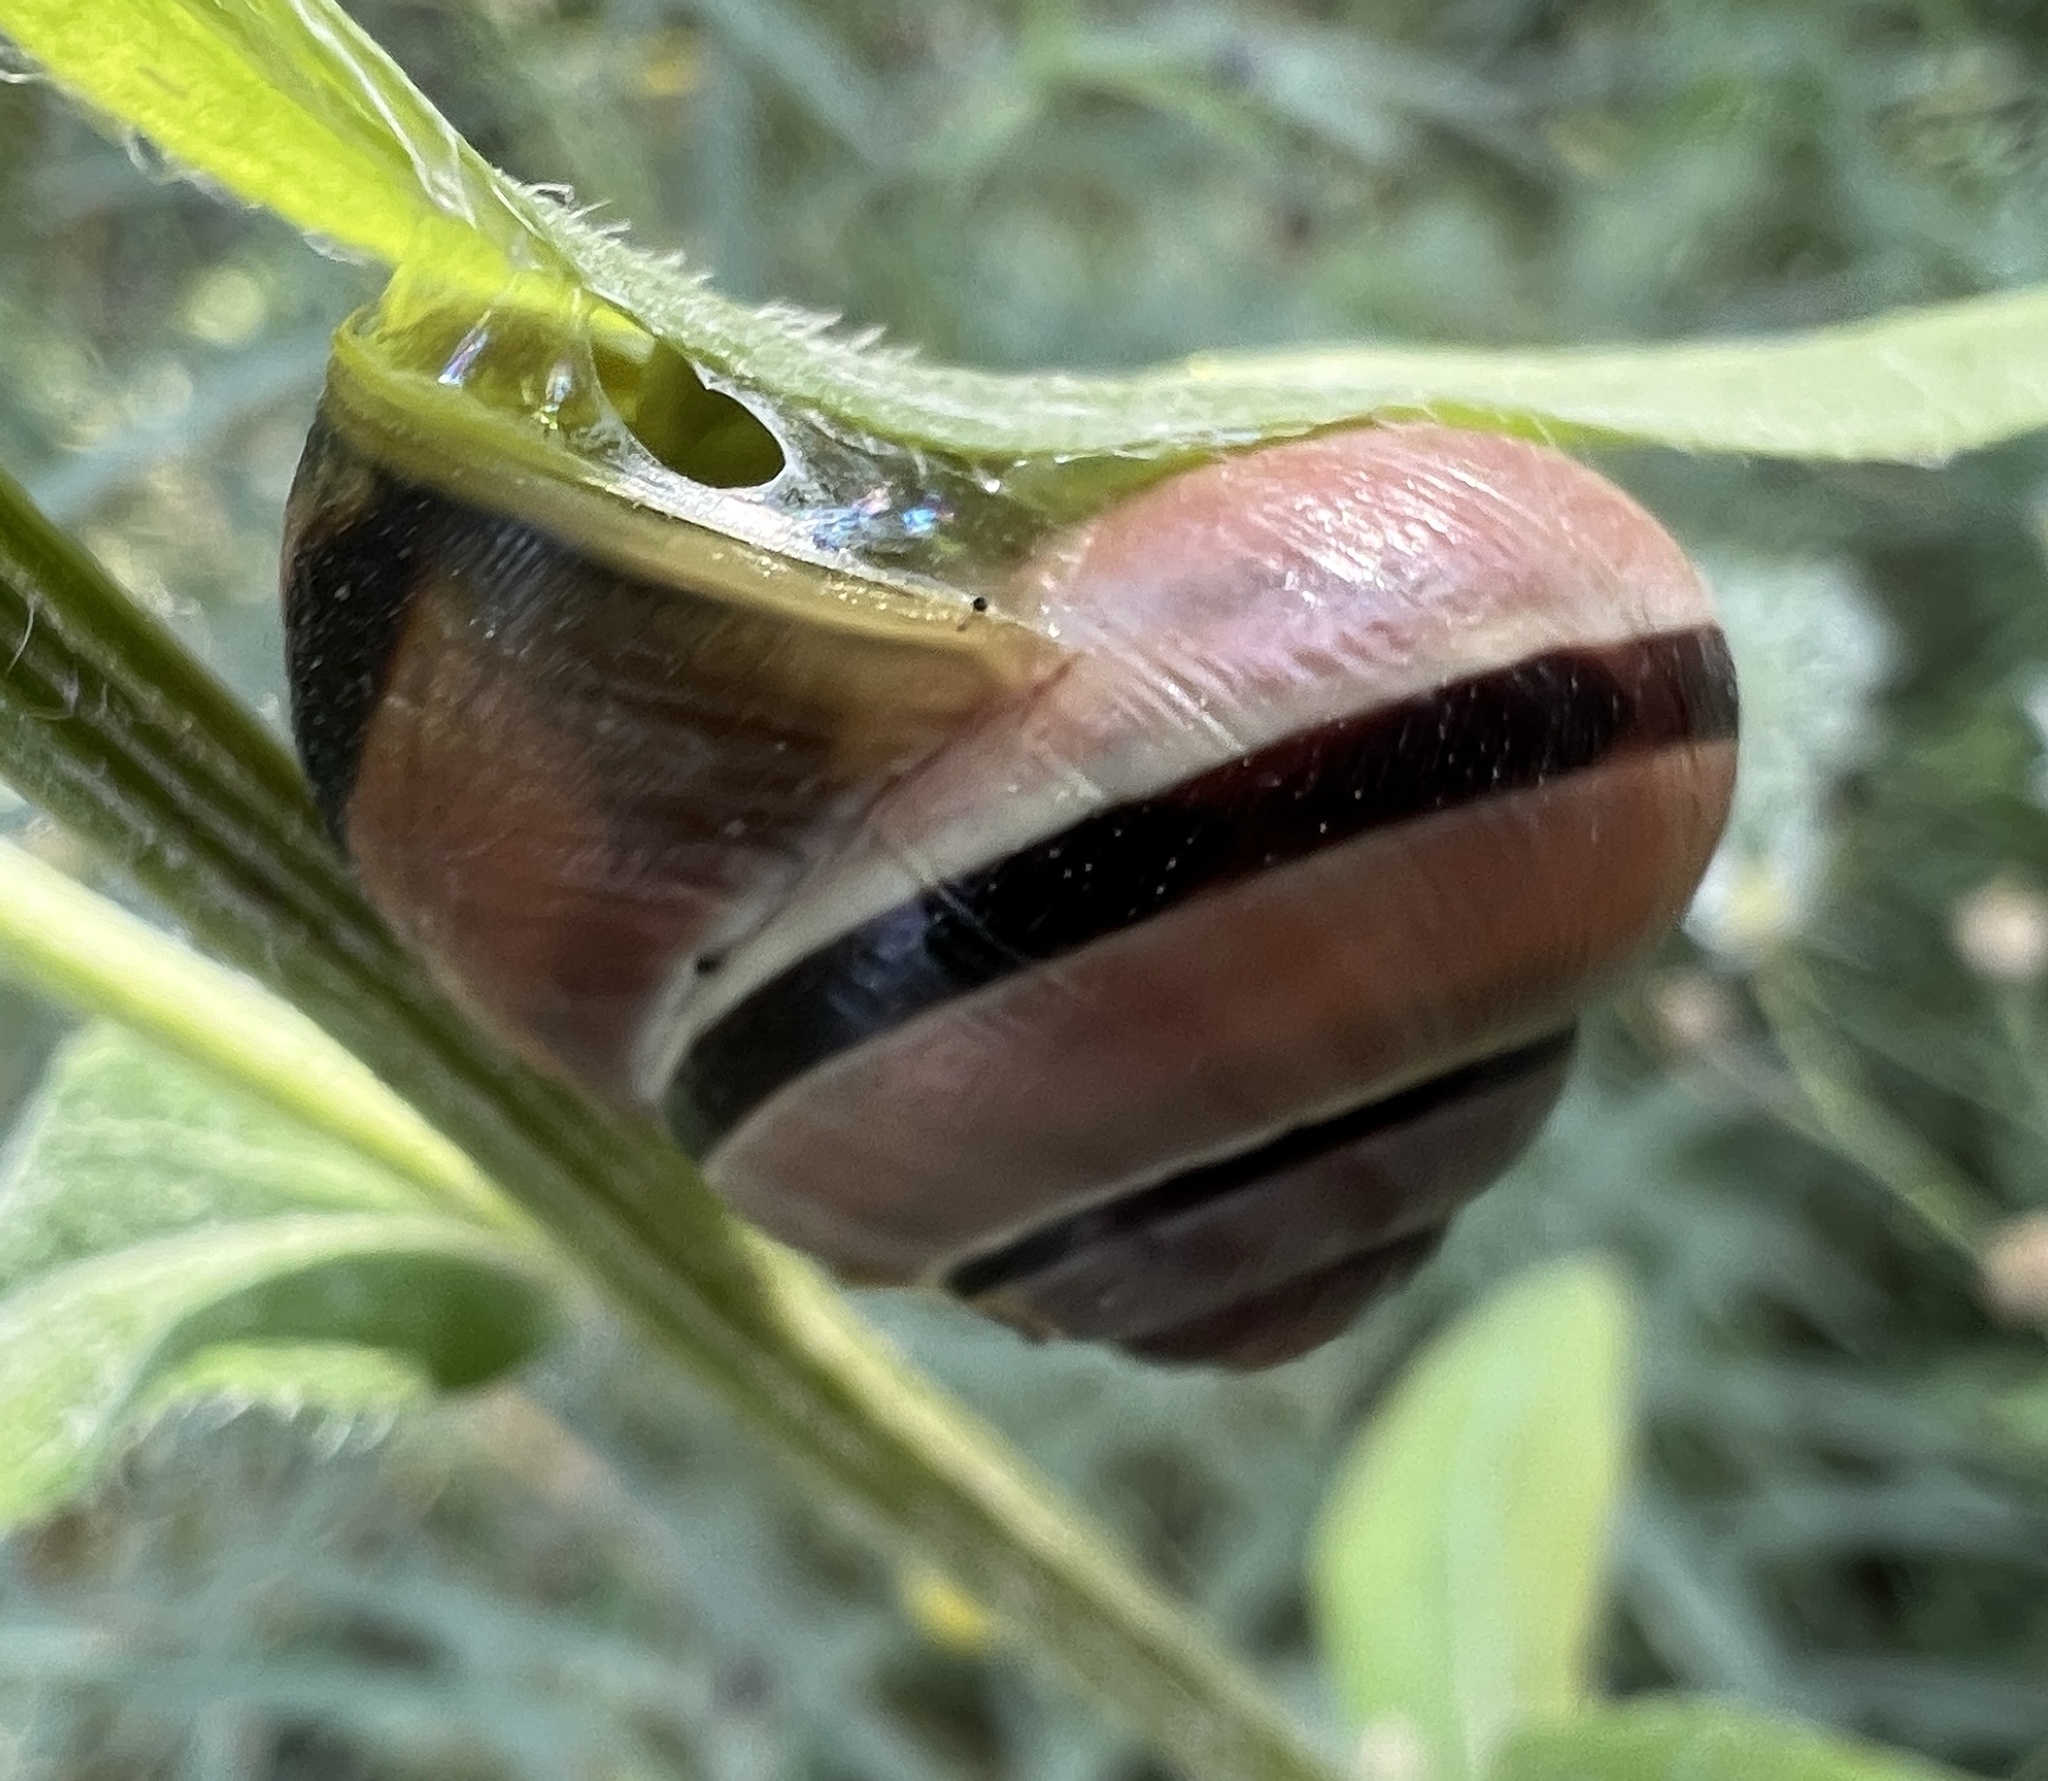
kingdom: Animalia
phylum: Mollusca
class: Gastropoda
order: Stylommatophora
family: Helicidae
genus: Cepaea
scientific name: Cepaea nemoralis
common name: Grovesnail
